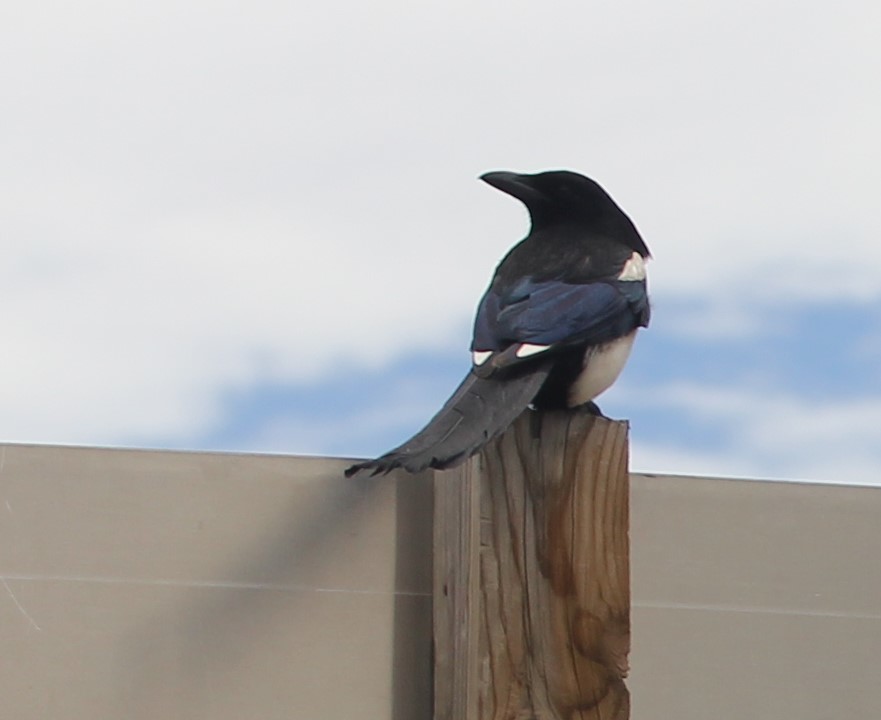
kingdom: Animalia
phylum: Chordata
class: Aves
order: Passeriformes
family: Corvidae
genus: Pica
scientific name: Pica hudsonia
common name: Black-billed magpie
